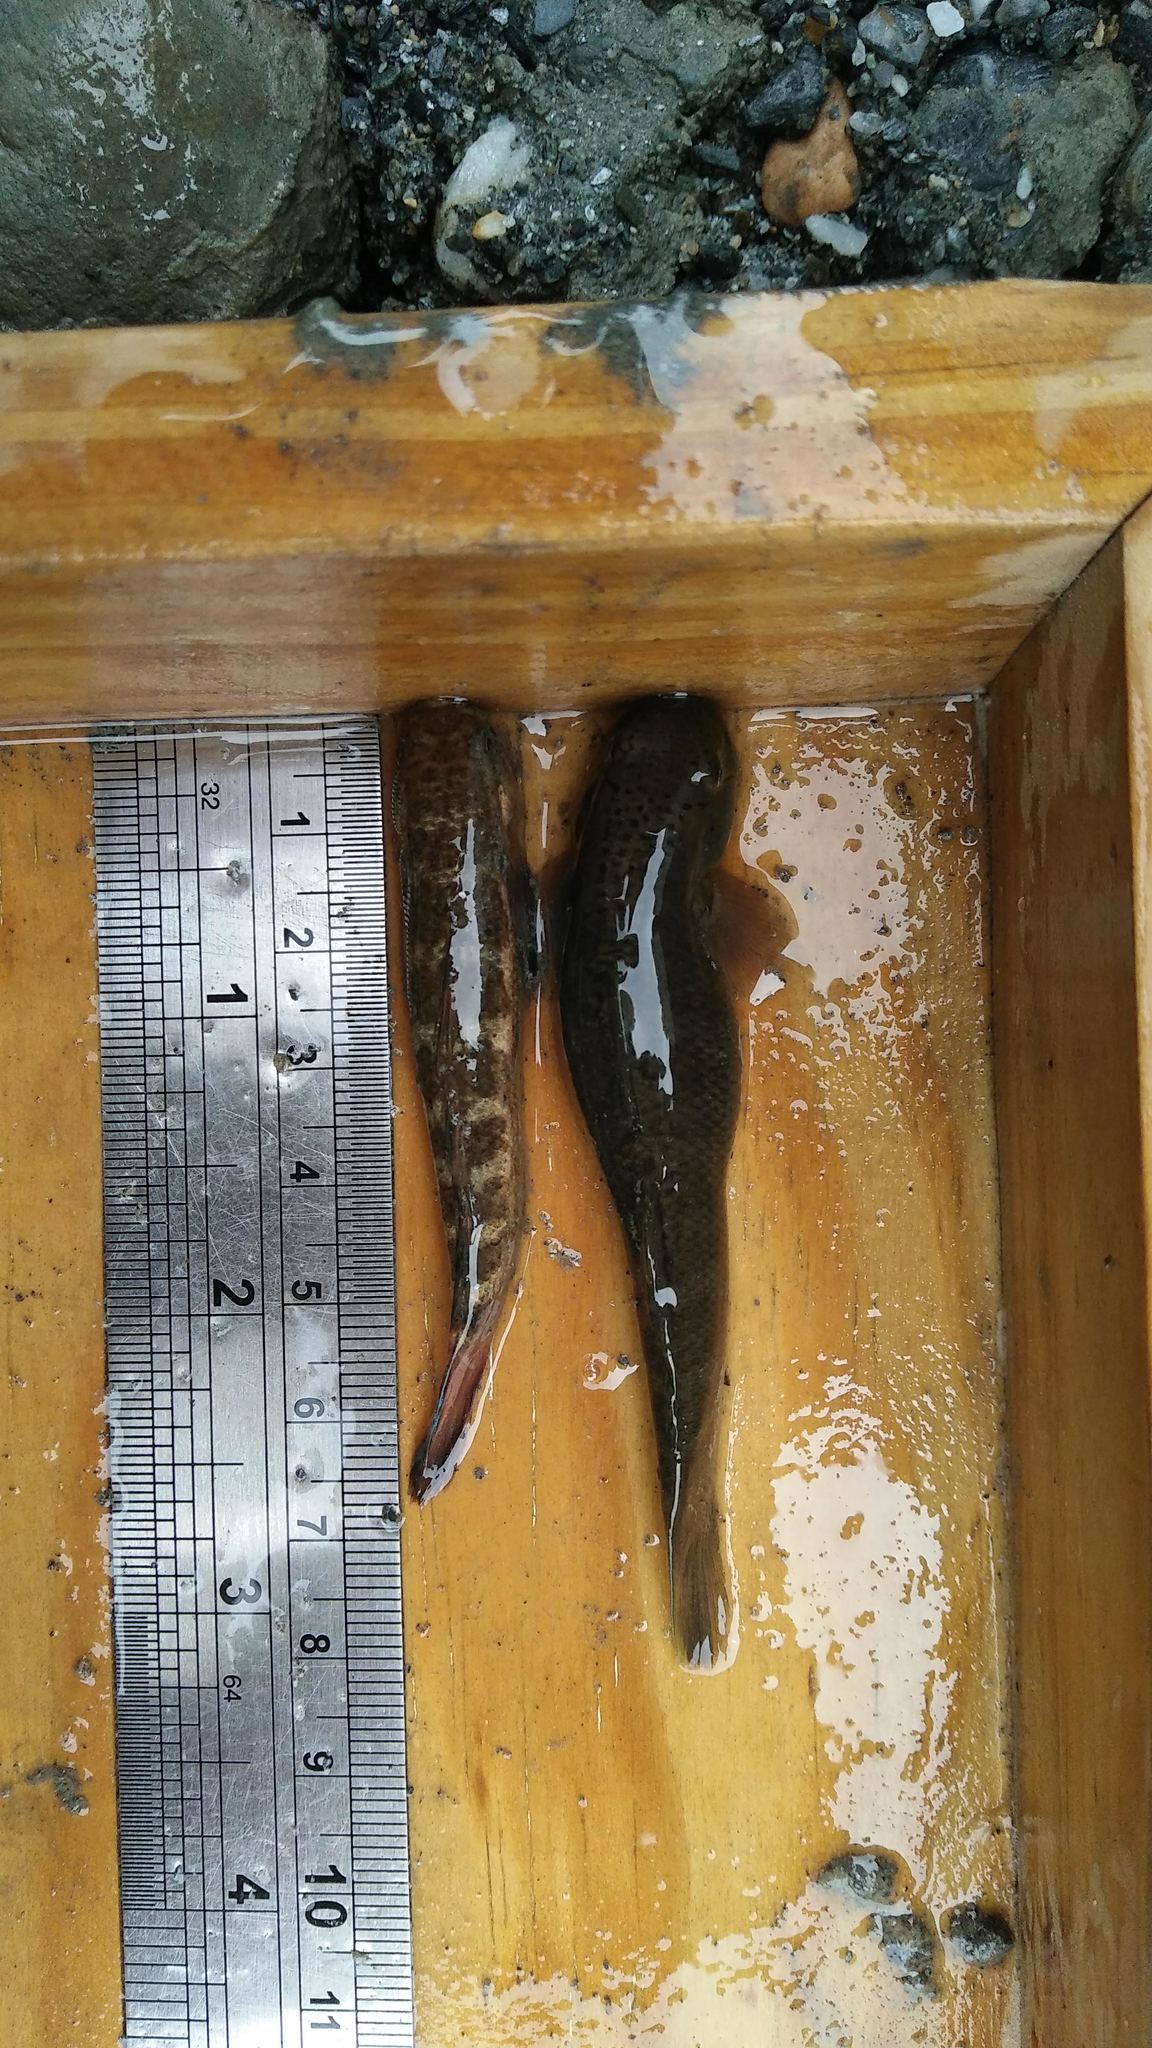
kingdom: Animalia
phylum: Chordata
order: Perciformes
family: Gobiidae
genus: Sicyopterus
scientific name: Sicyopterus japonicus
